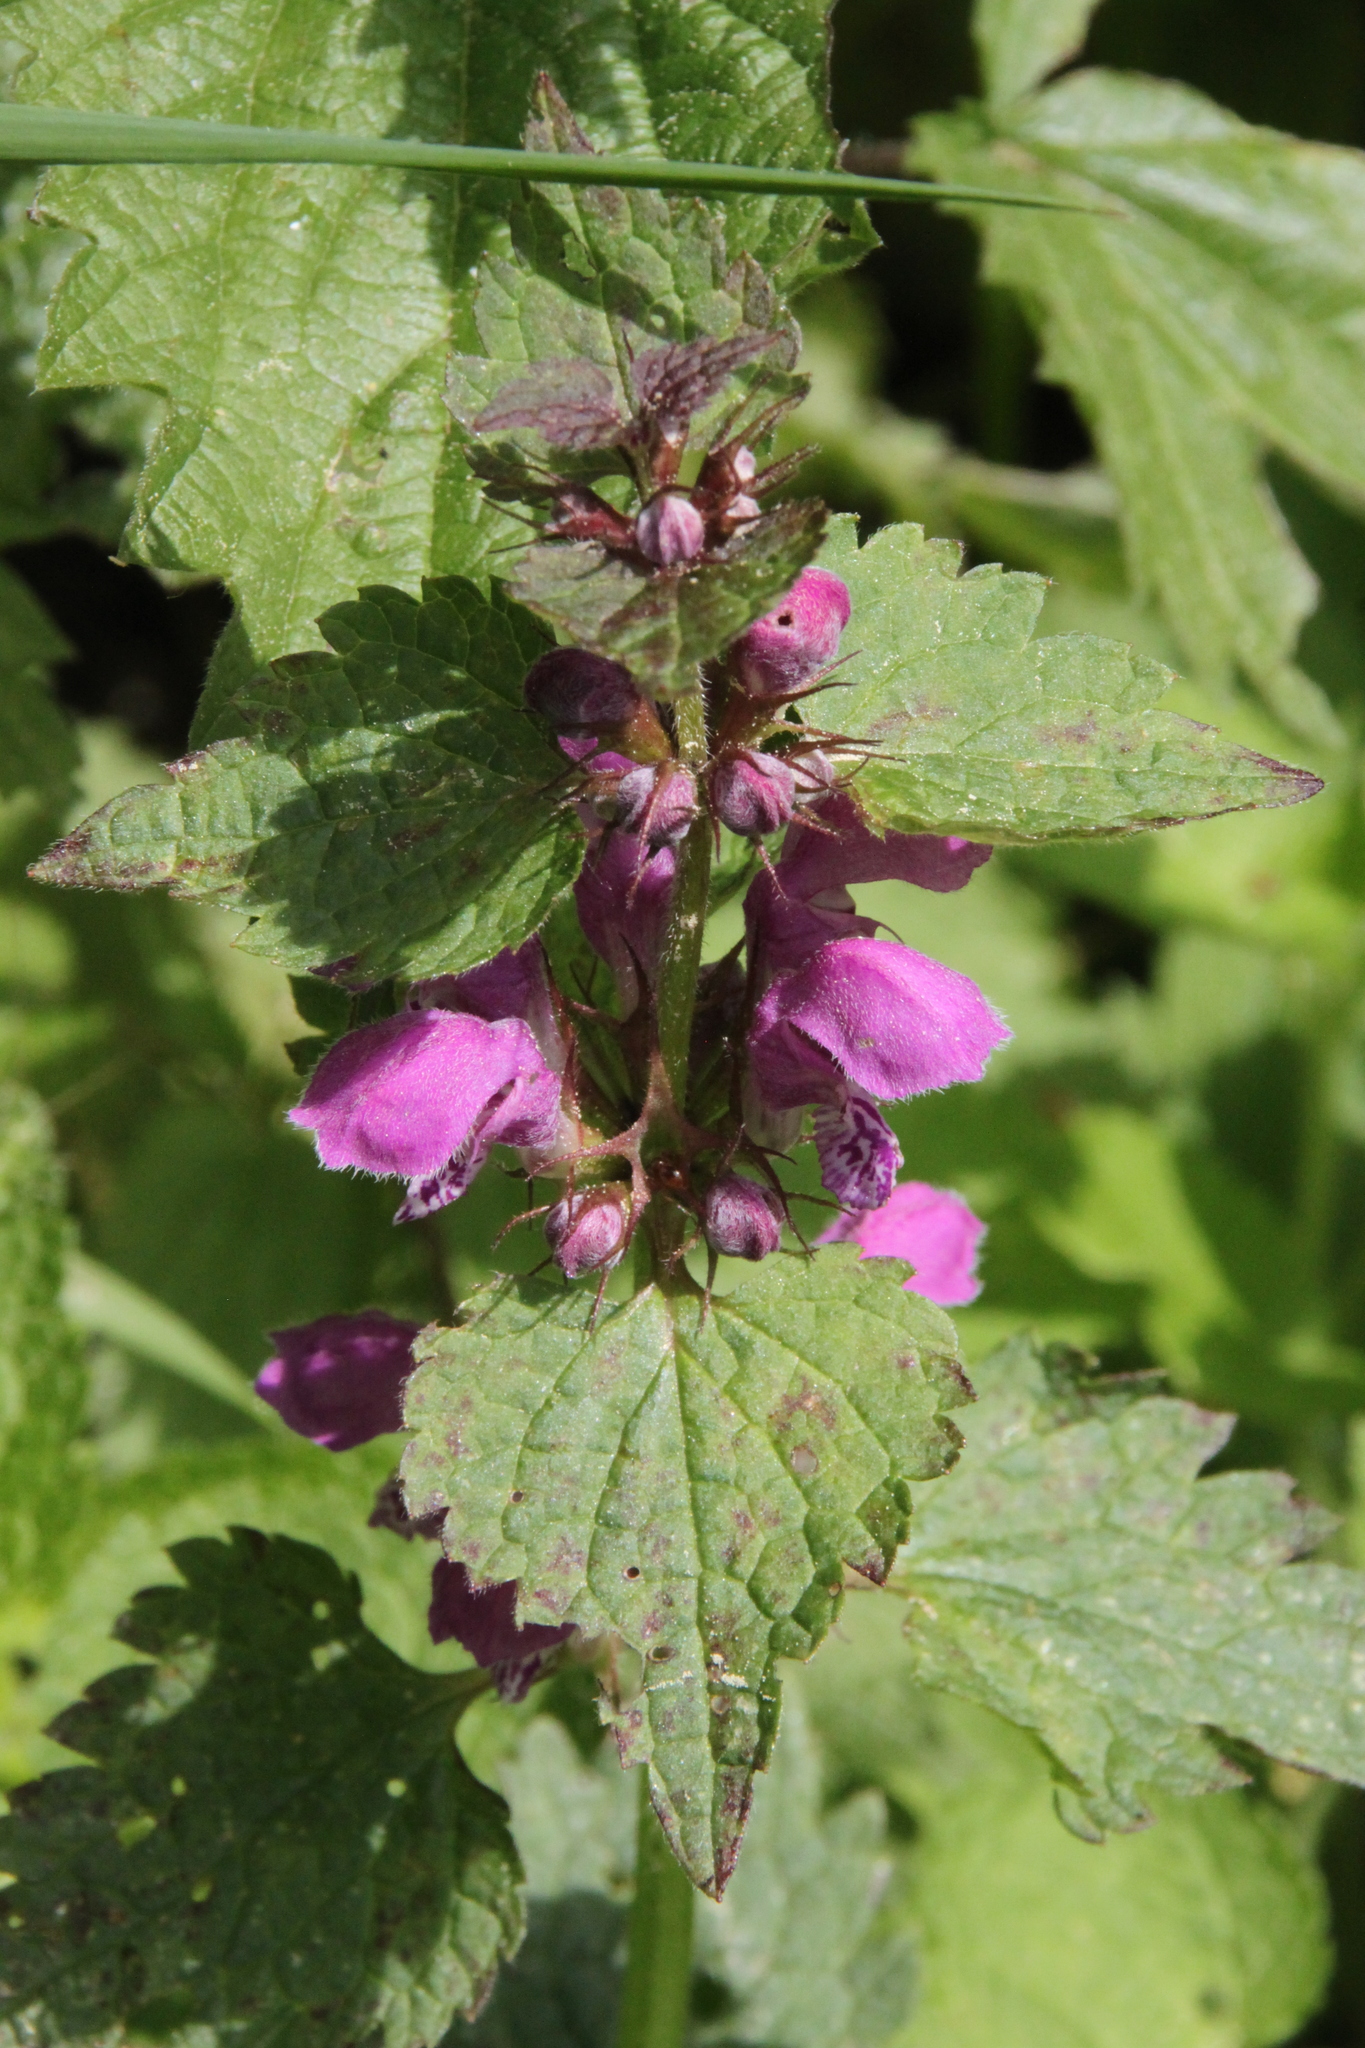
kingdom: Plantae
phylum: Tracheophyta
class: Magnoliopsida
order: Lamiales
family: Lamiaceae
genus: Lamium
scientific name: Lamium maculatum
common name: Spotted dead-nettle
